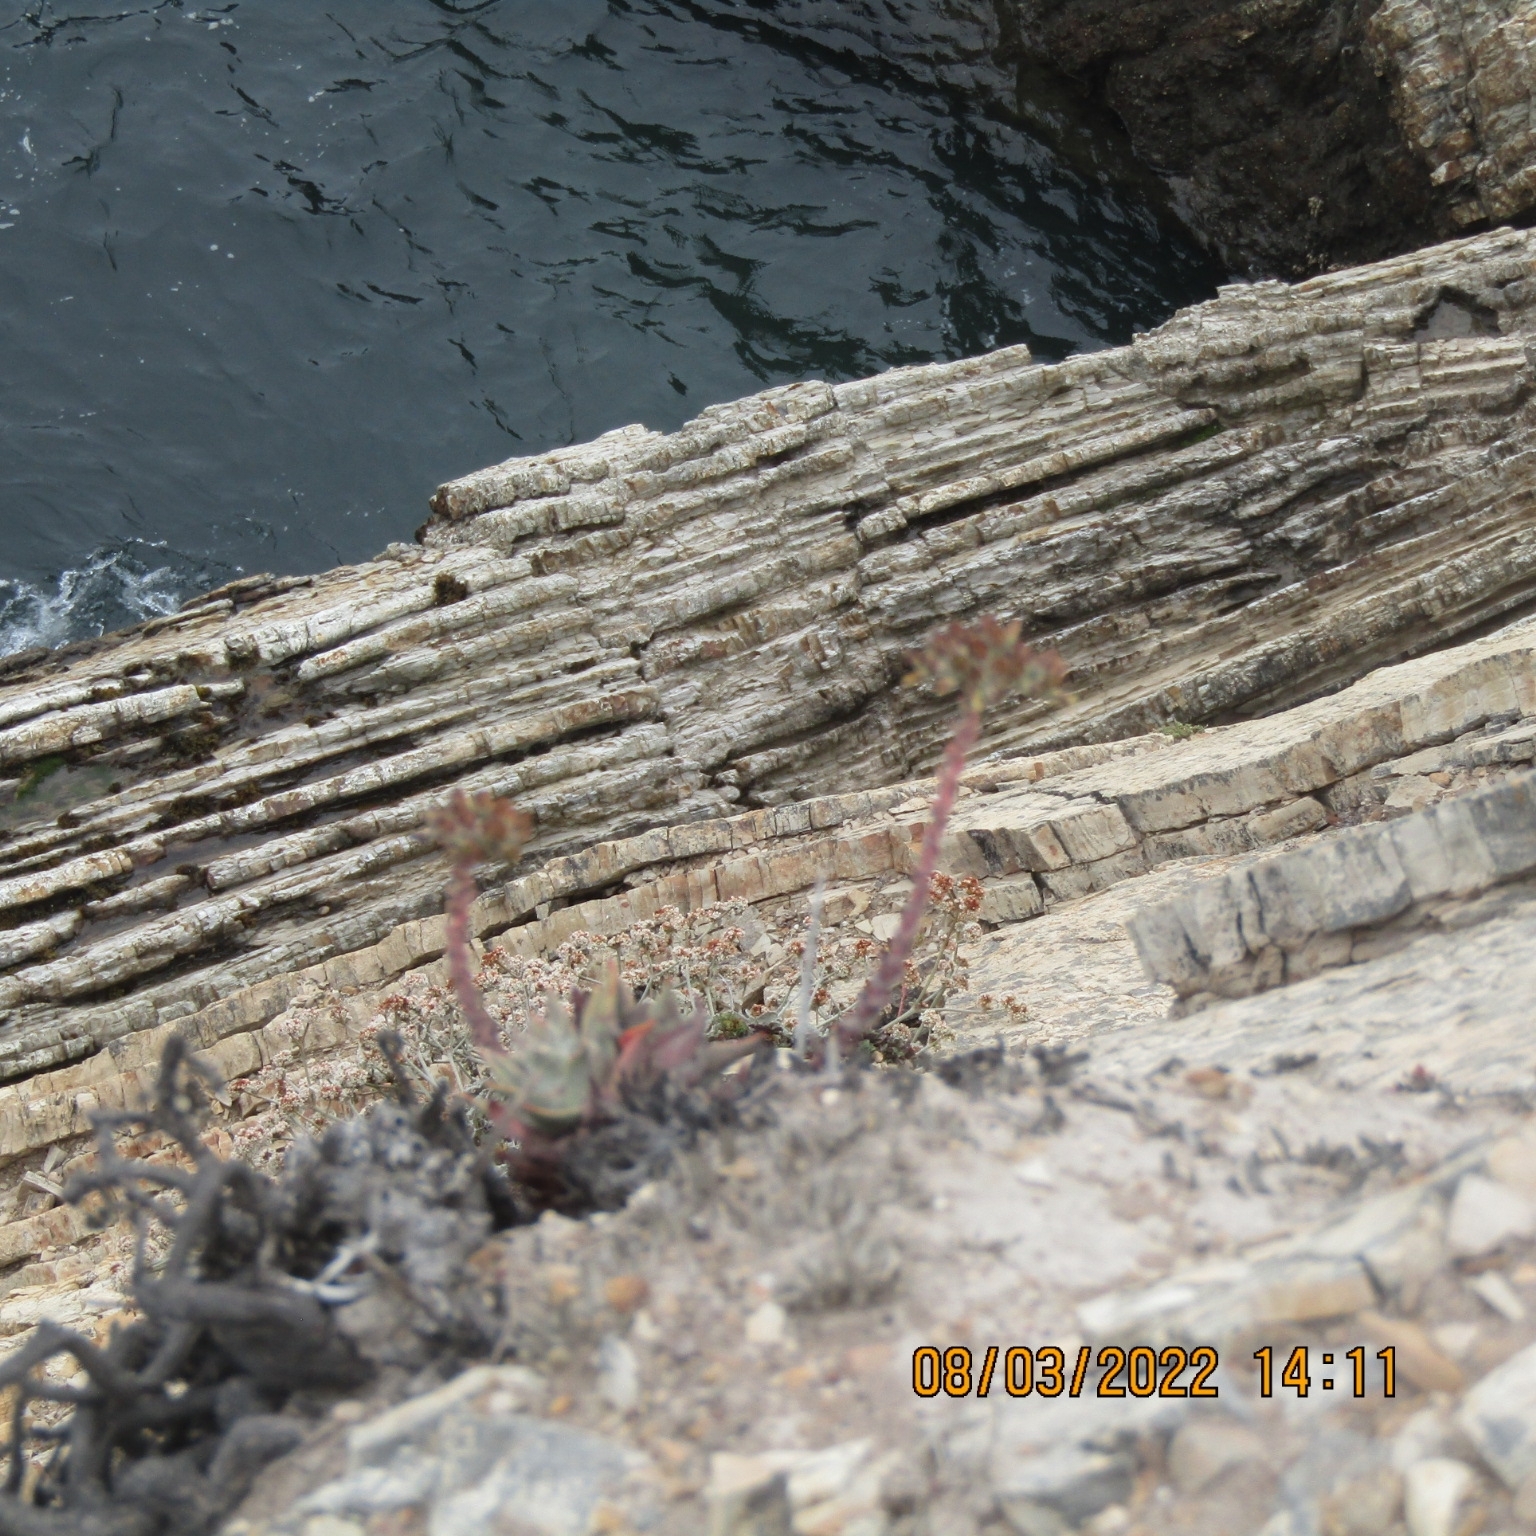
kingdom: Plantae
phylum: Tracheophyta
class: Magnoliopsida
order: Saxifragales
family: Crassulaceae
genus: Dudleya
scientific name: Dudleya farinosa
